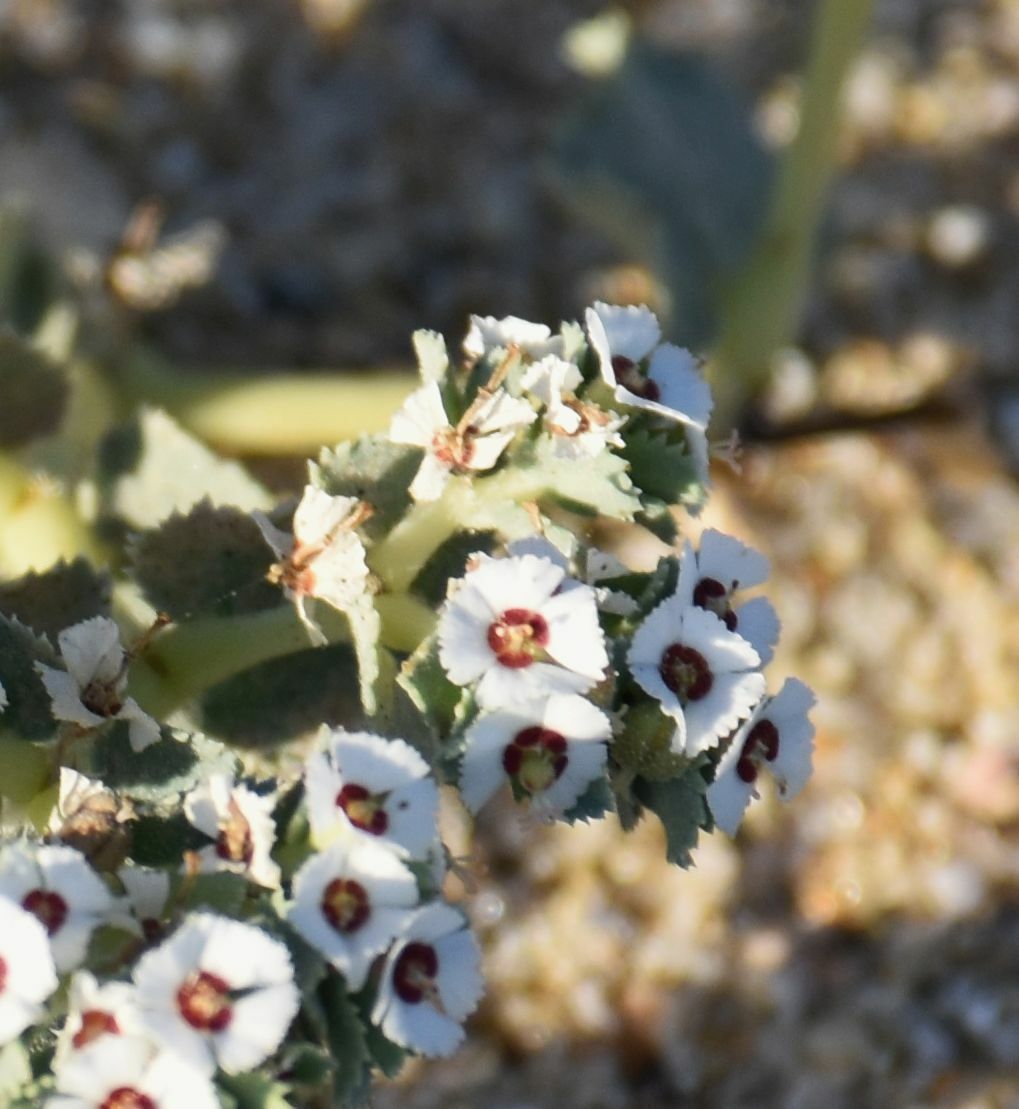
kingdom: Plantae
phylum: Tracheophyta
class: Magnoliopsida
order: Malpighiales
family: Euphorbiaceae
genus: Euphorbia
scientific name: Euphorbia leucophylla
